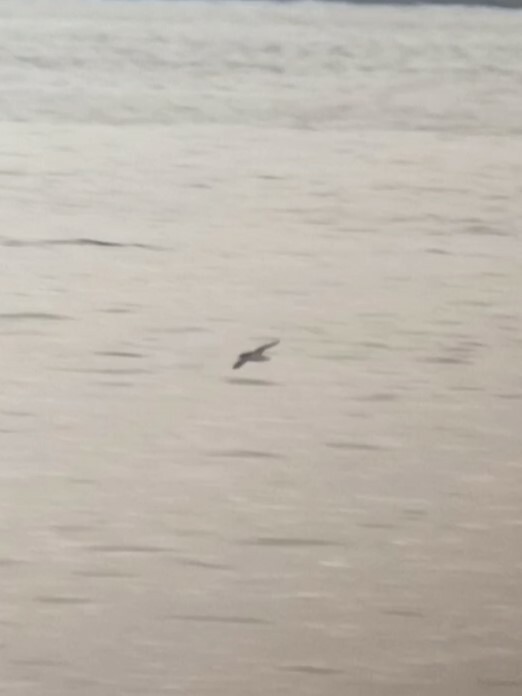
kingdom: Animalia
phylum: Chordata
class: Aves
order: Procellariiformes
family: Procellariidae
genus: Puffinus
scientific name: Puffinus puffinus
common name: Manx shearwater
